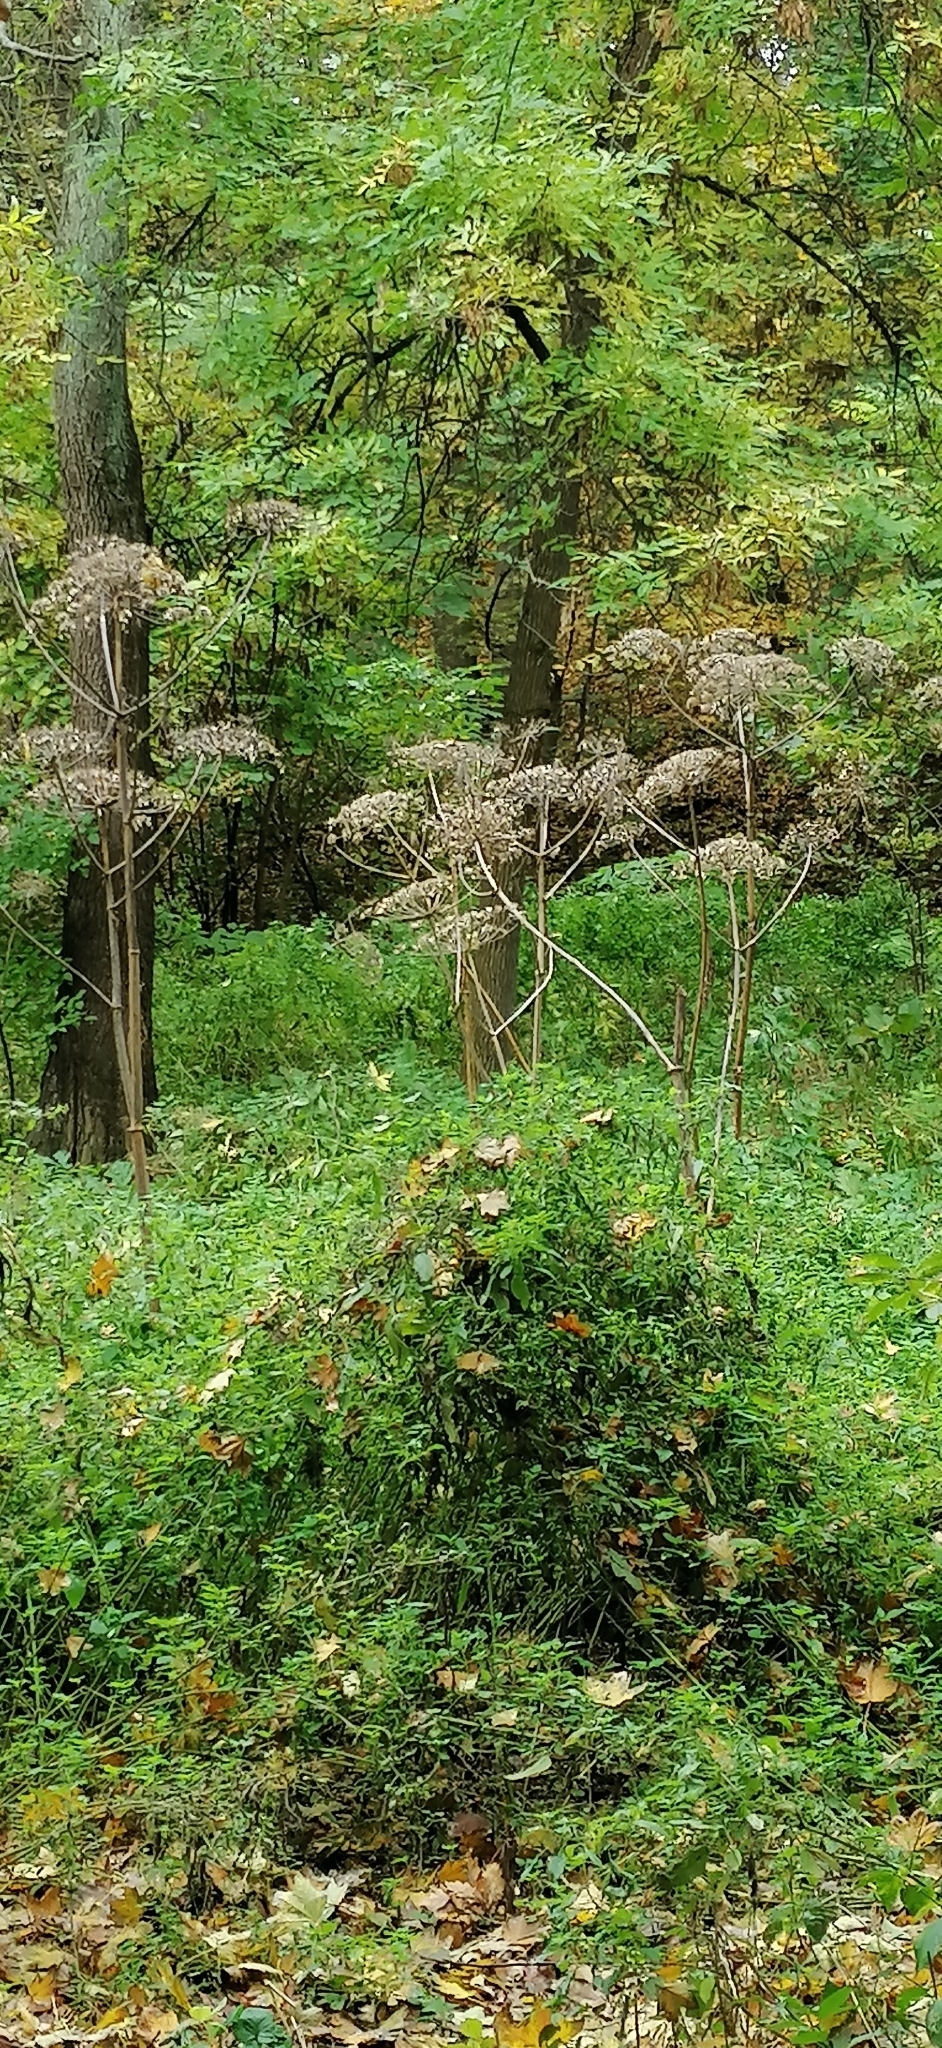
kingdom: Plantae
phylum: Tracheophyta
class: Magnoliopsida
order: Apiales
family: Apiaceae
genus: Heracleum
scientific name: Heracleum sosnowskyi
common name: Sosnowsky's hogweed
